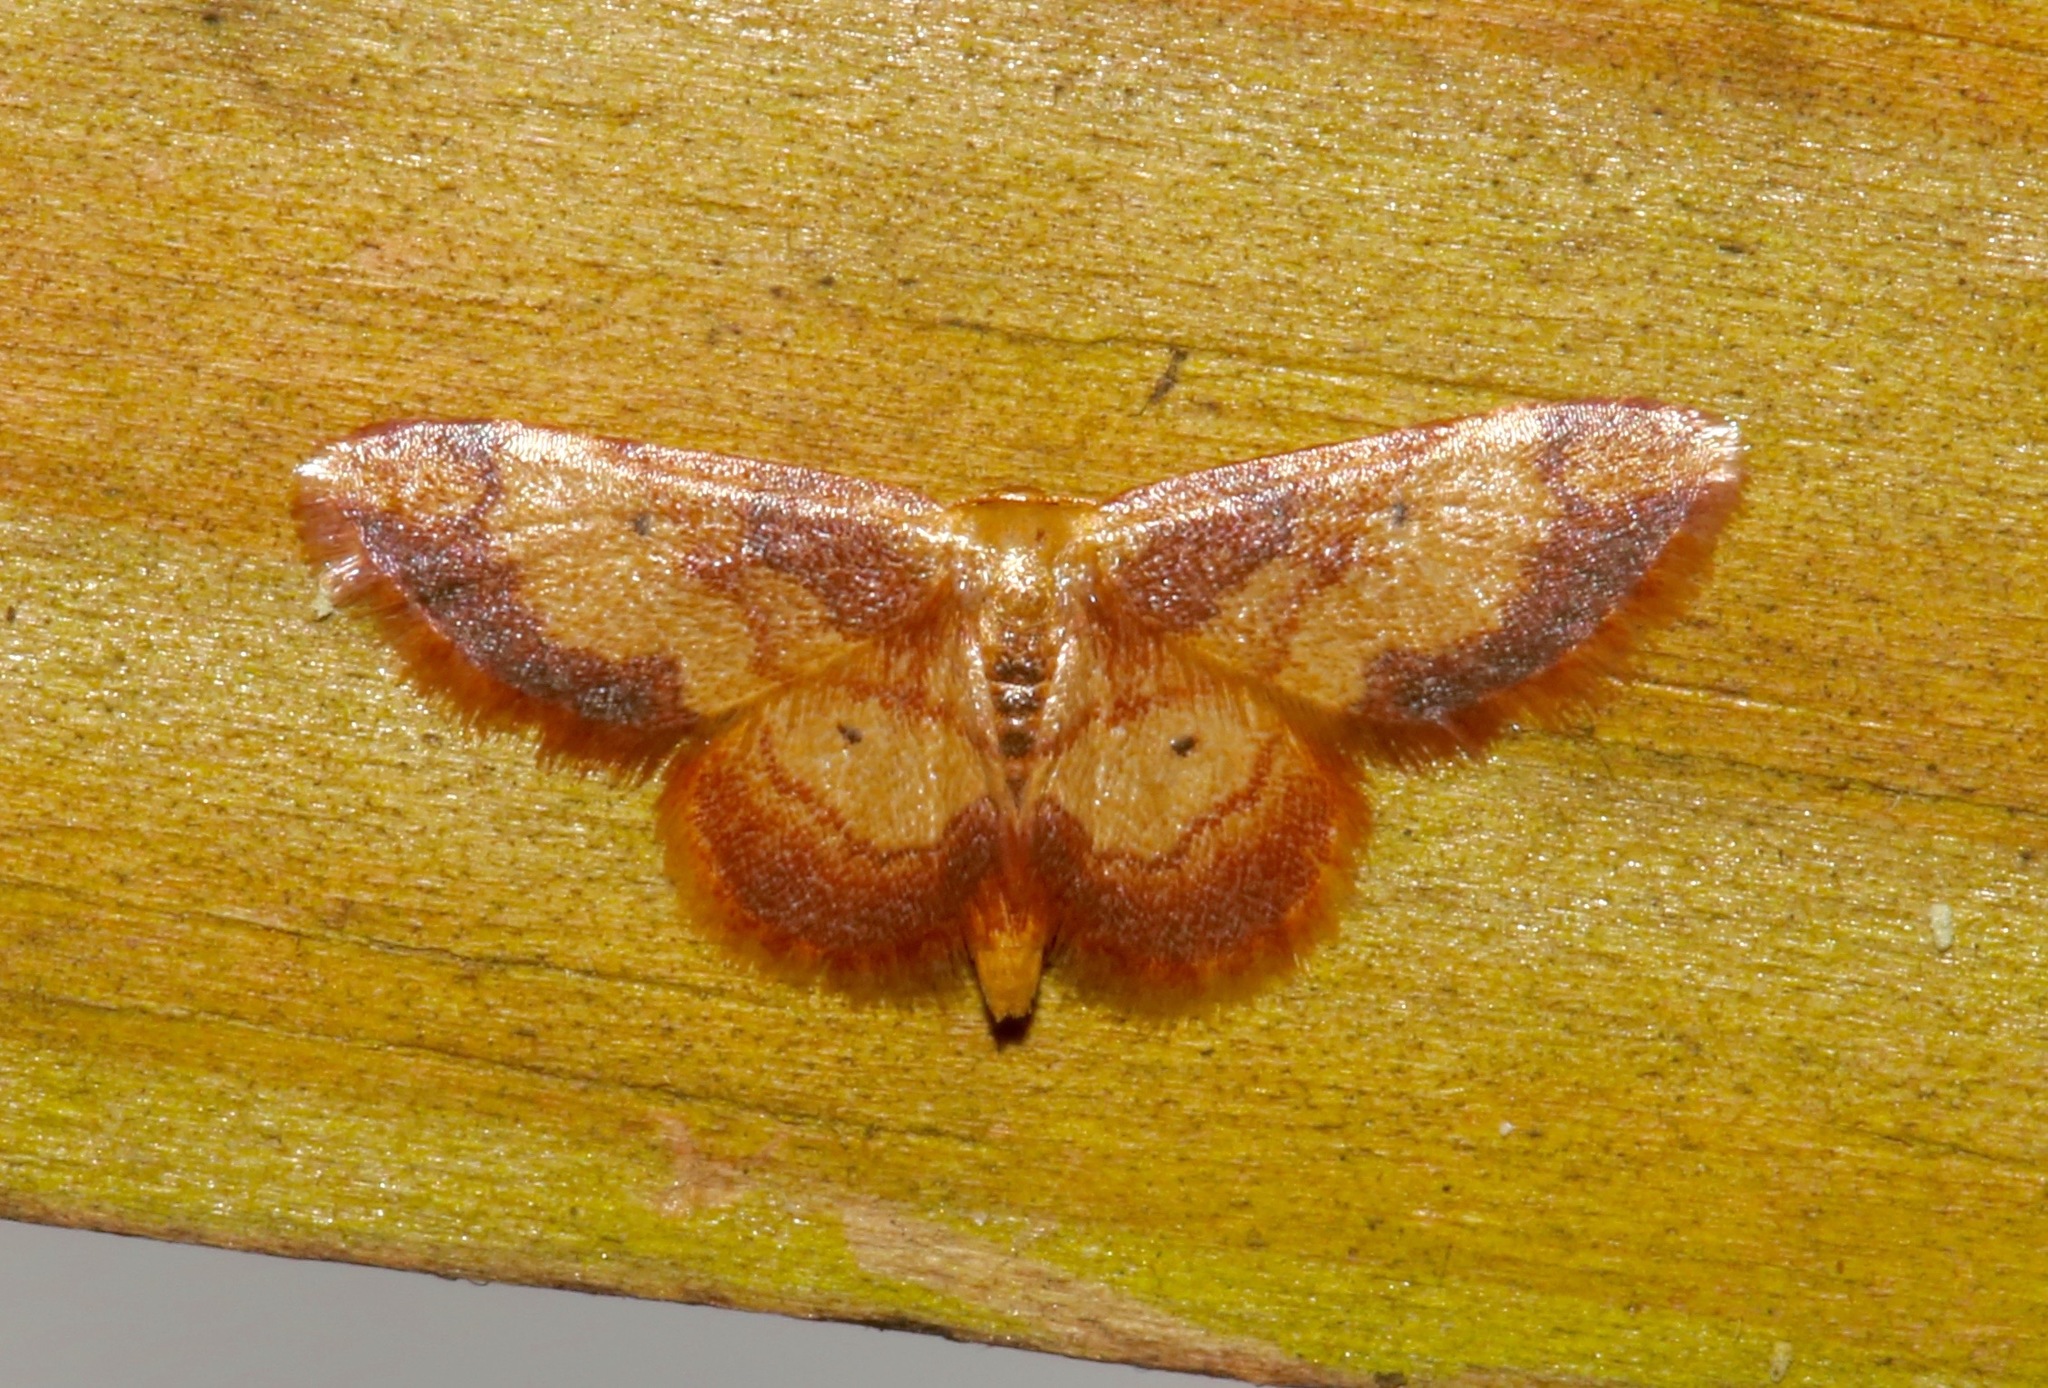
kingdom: Animalia
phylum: Arthropoda
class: Insecta
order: Lepidoptera
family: Geometridae
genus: Idaea
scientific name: Idaea demissaria
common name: Red-bordered wave
